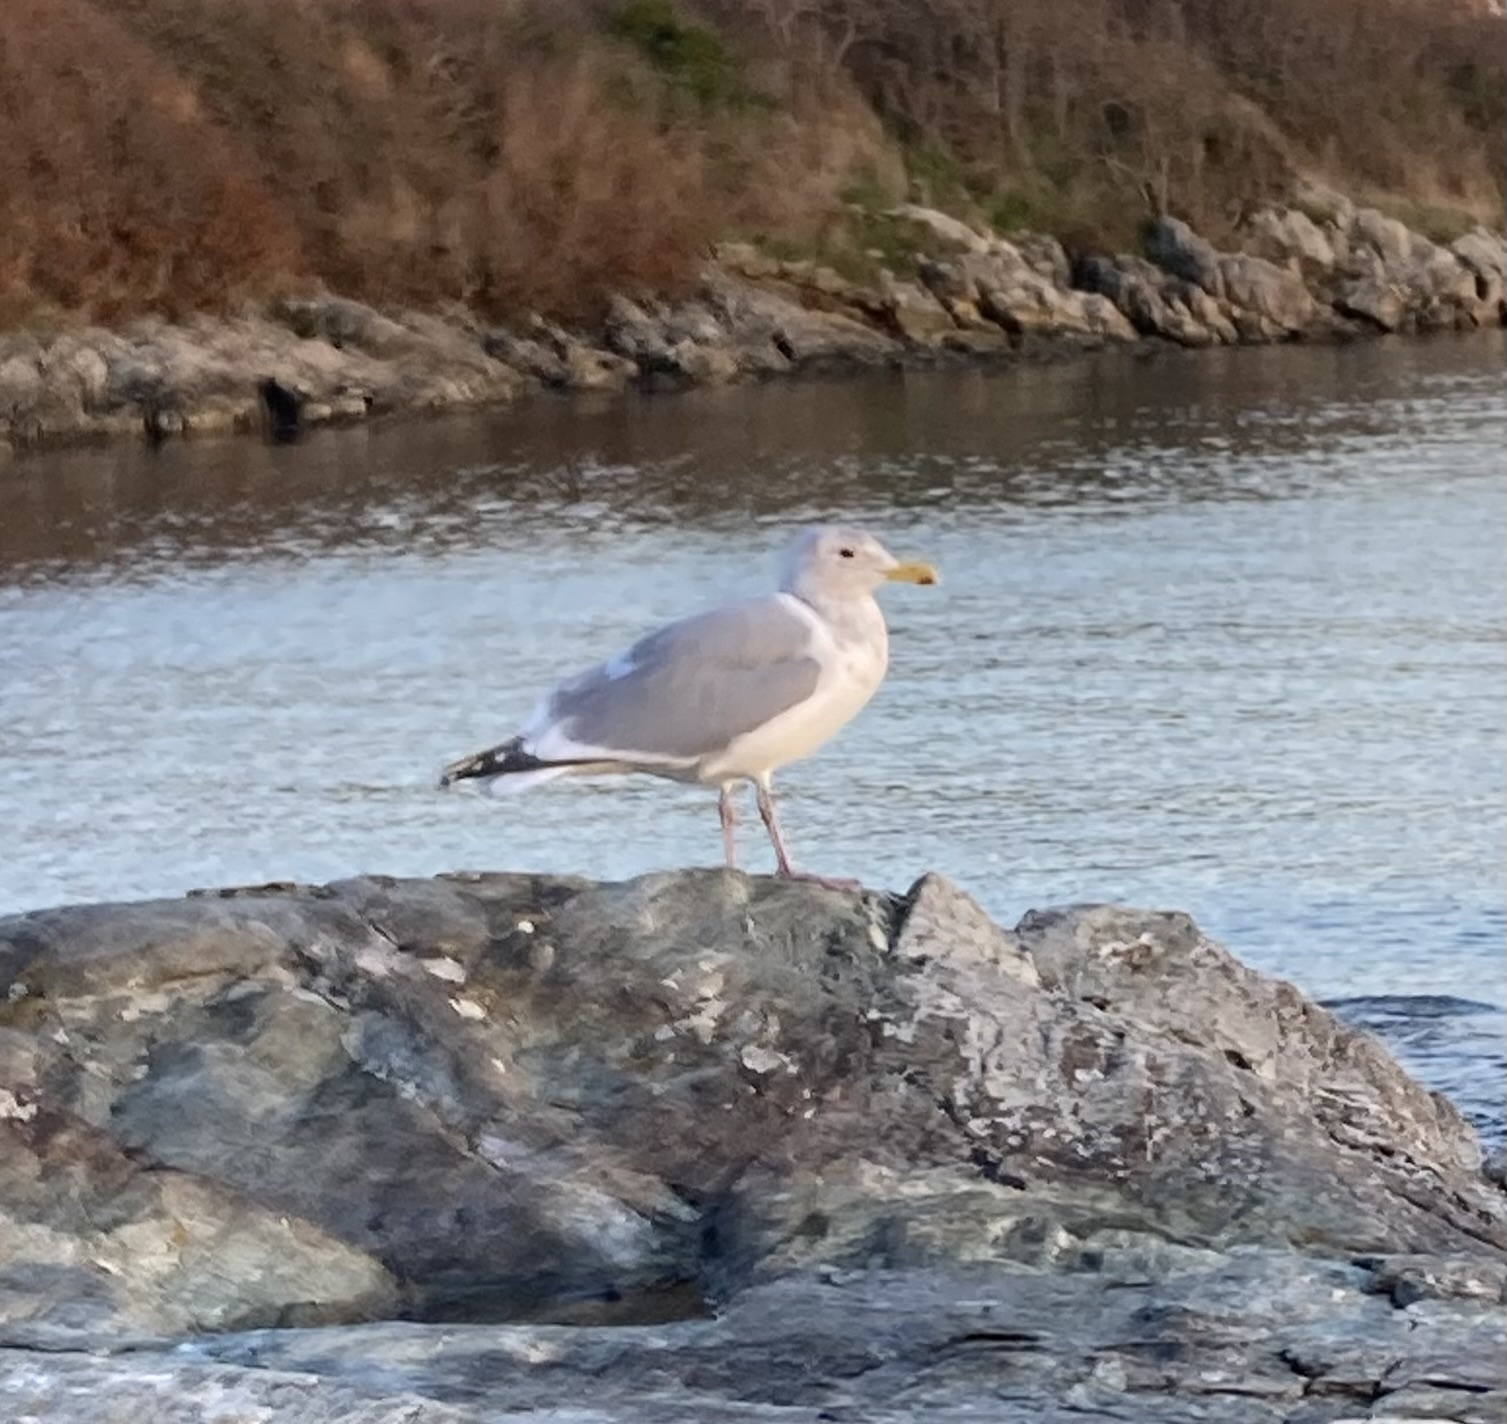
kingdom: Animalia
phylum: Chordata
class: Aves
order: Charadriiformes
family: Laridae
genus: Larus
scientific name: Larus
